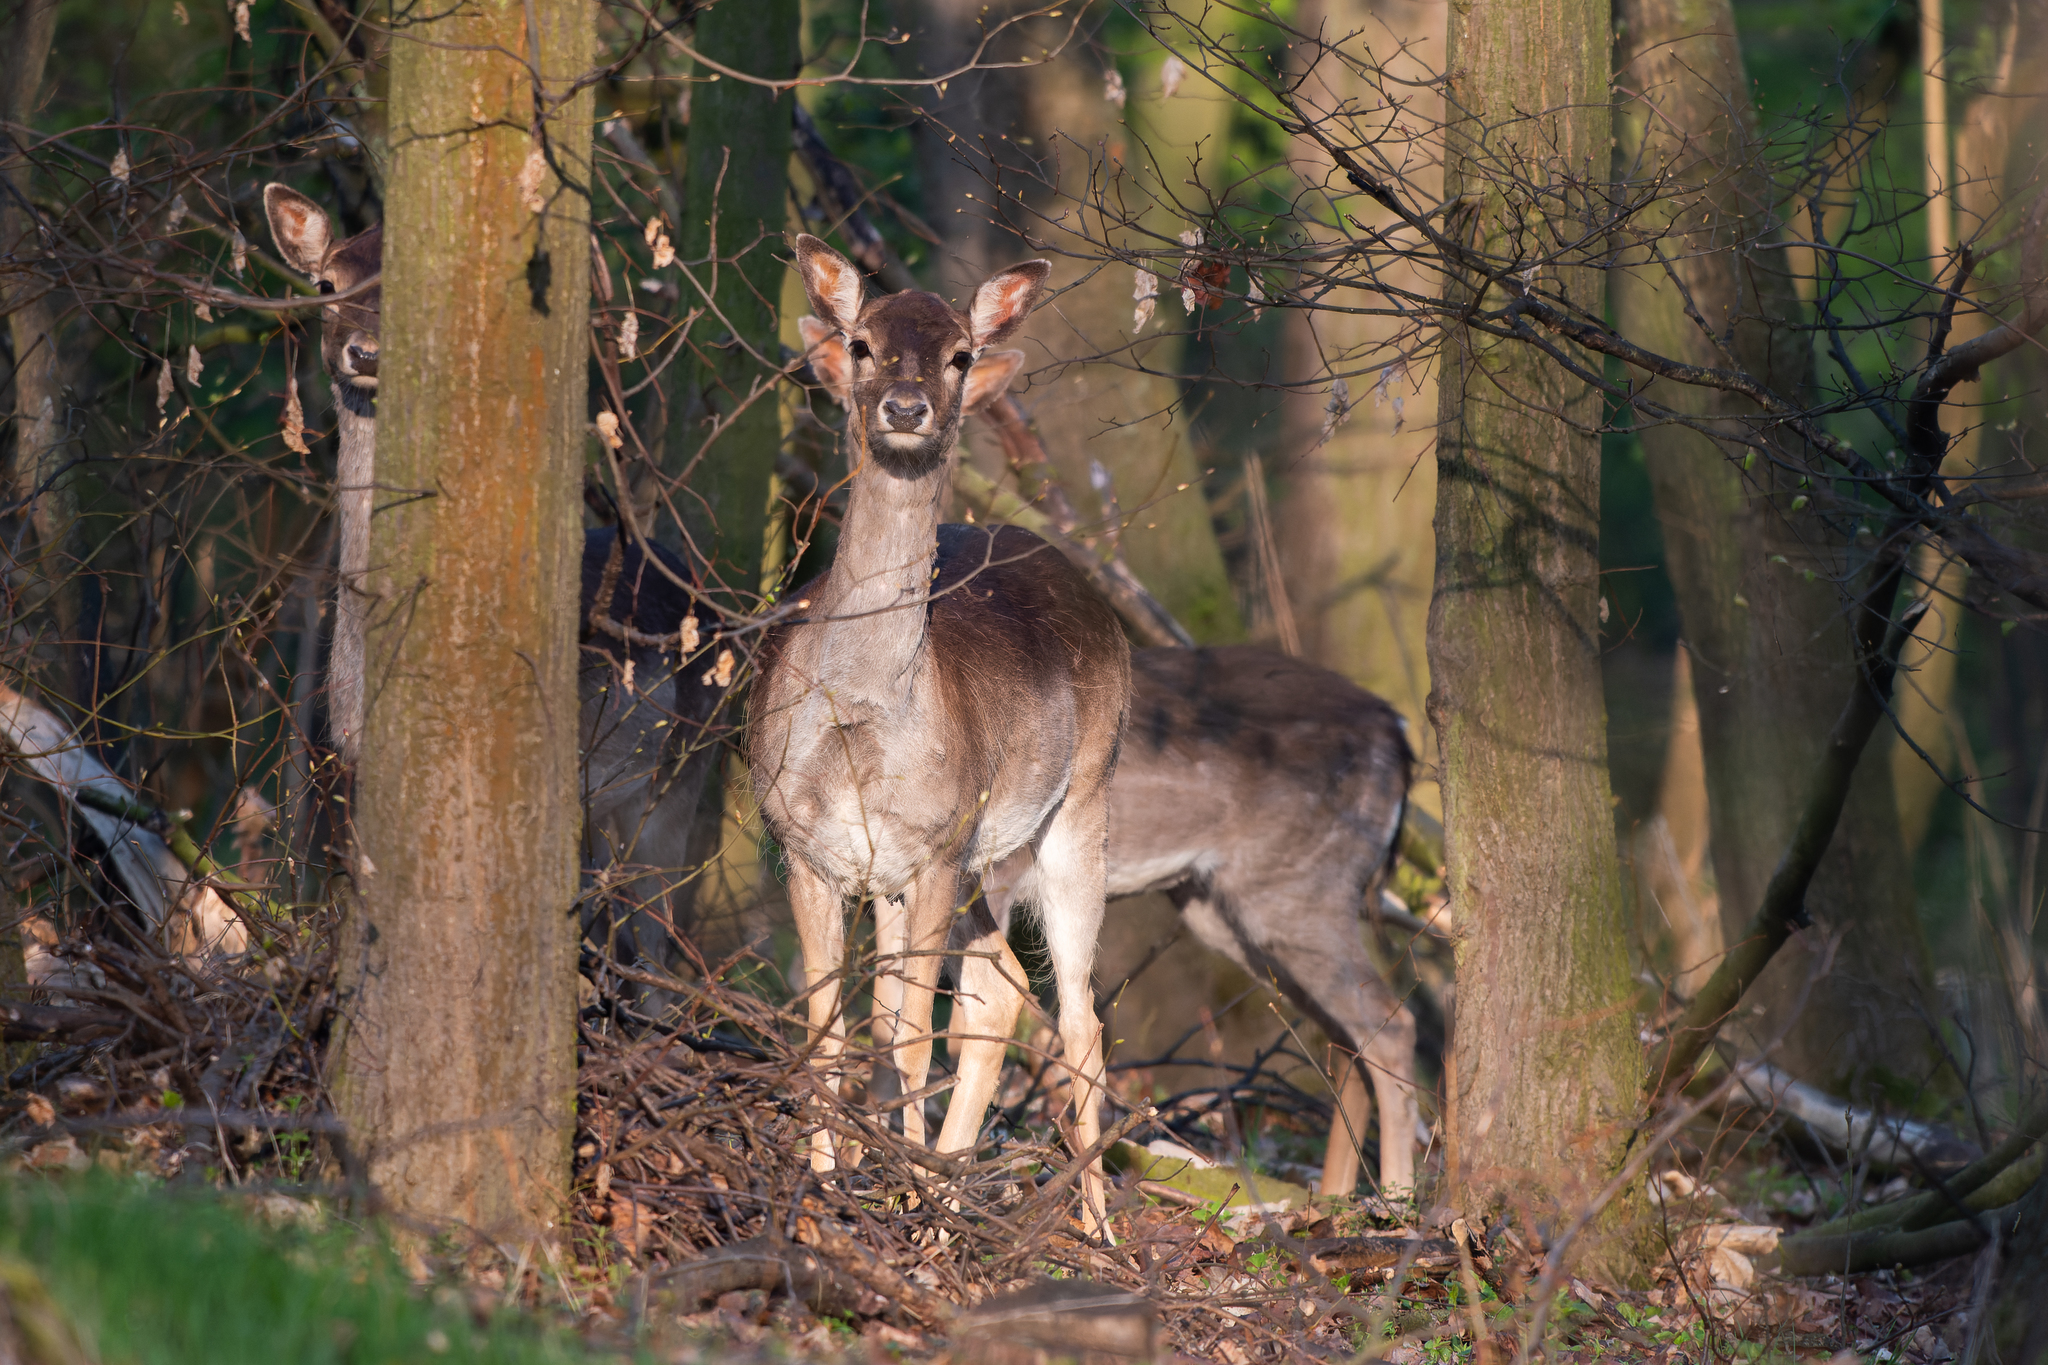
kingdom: Animalia
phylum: Chordata
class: Mammalia
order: Artiodactyla
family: Cervidae
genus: Capreolus
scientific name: Capreolus capreolus
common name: Western roe deer
